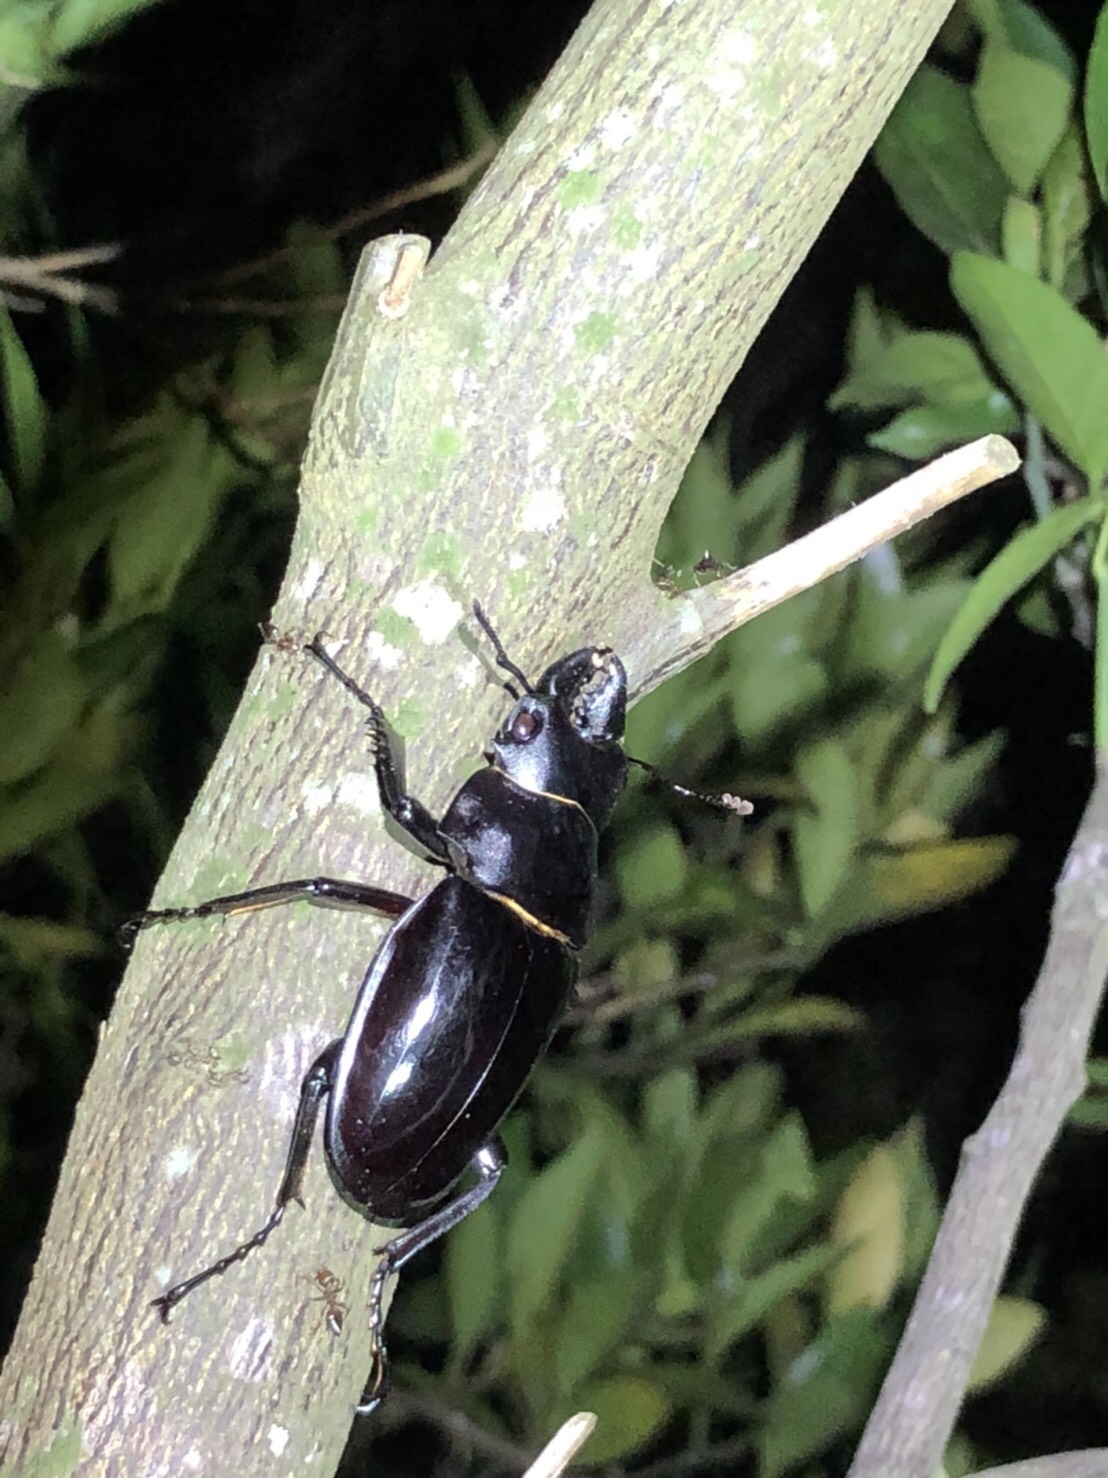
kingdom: Animalia
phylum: Arthropoda
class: Insecta
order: Coleoptera
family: Lucanidae
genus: Odontolabis
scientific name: Odontolabis siva
